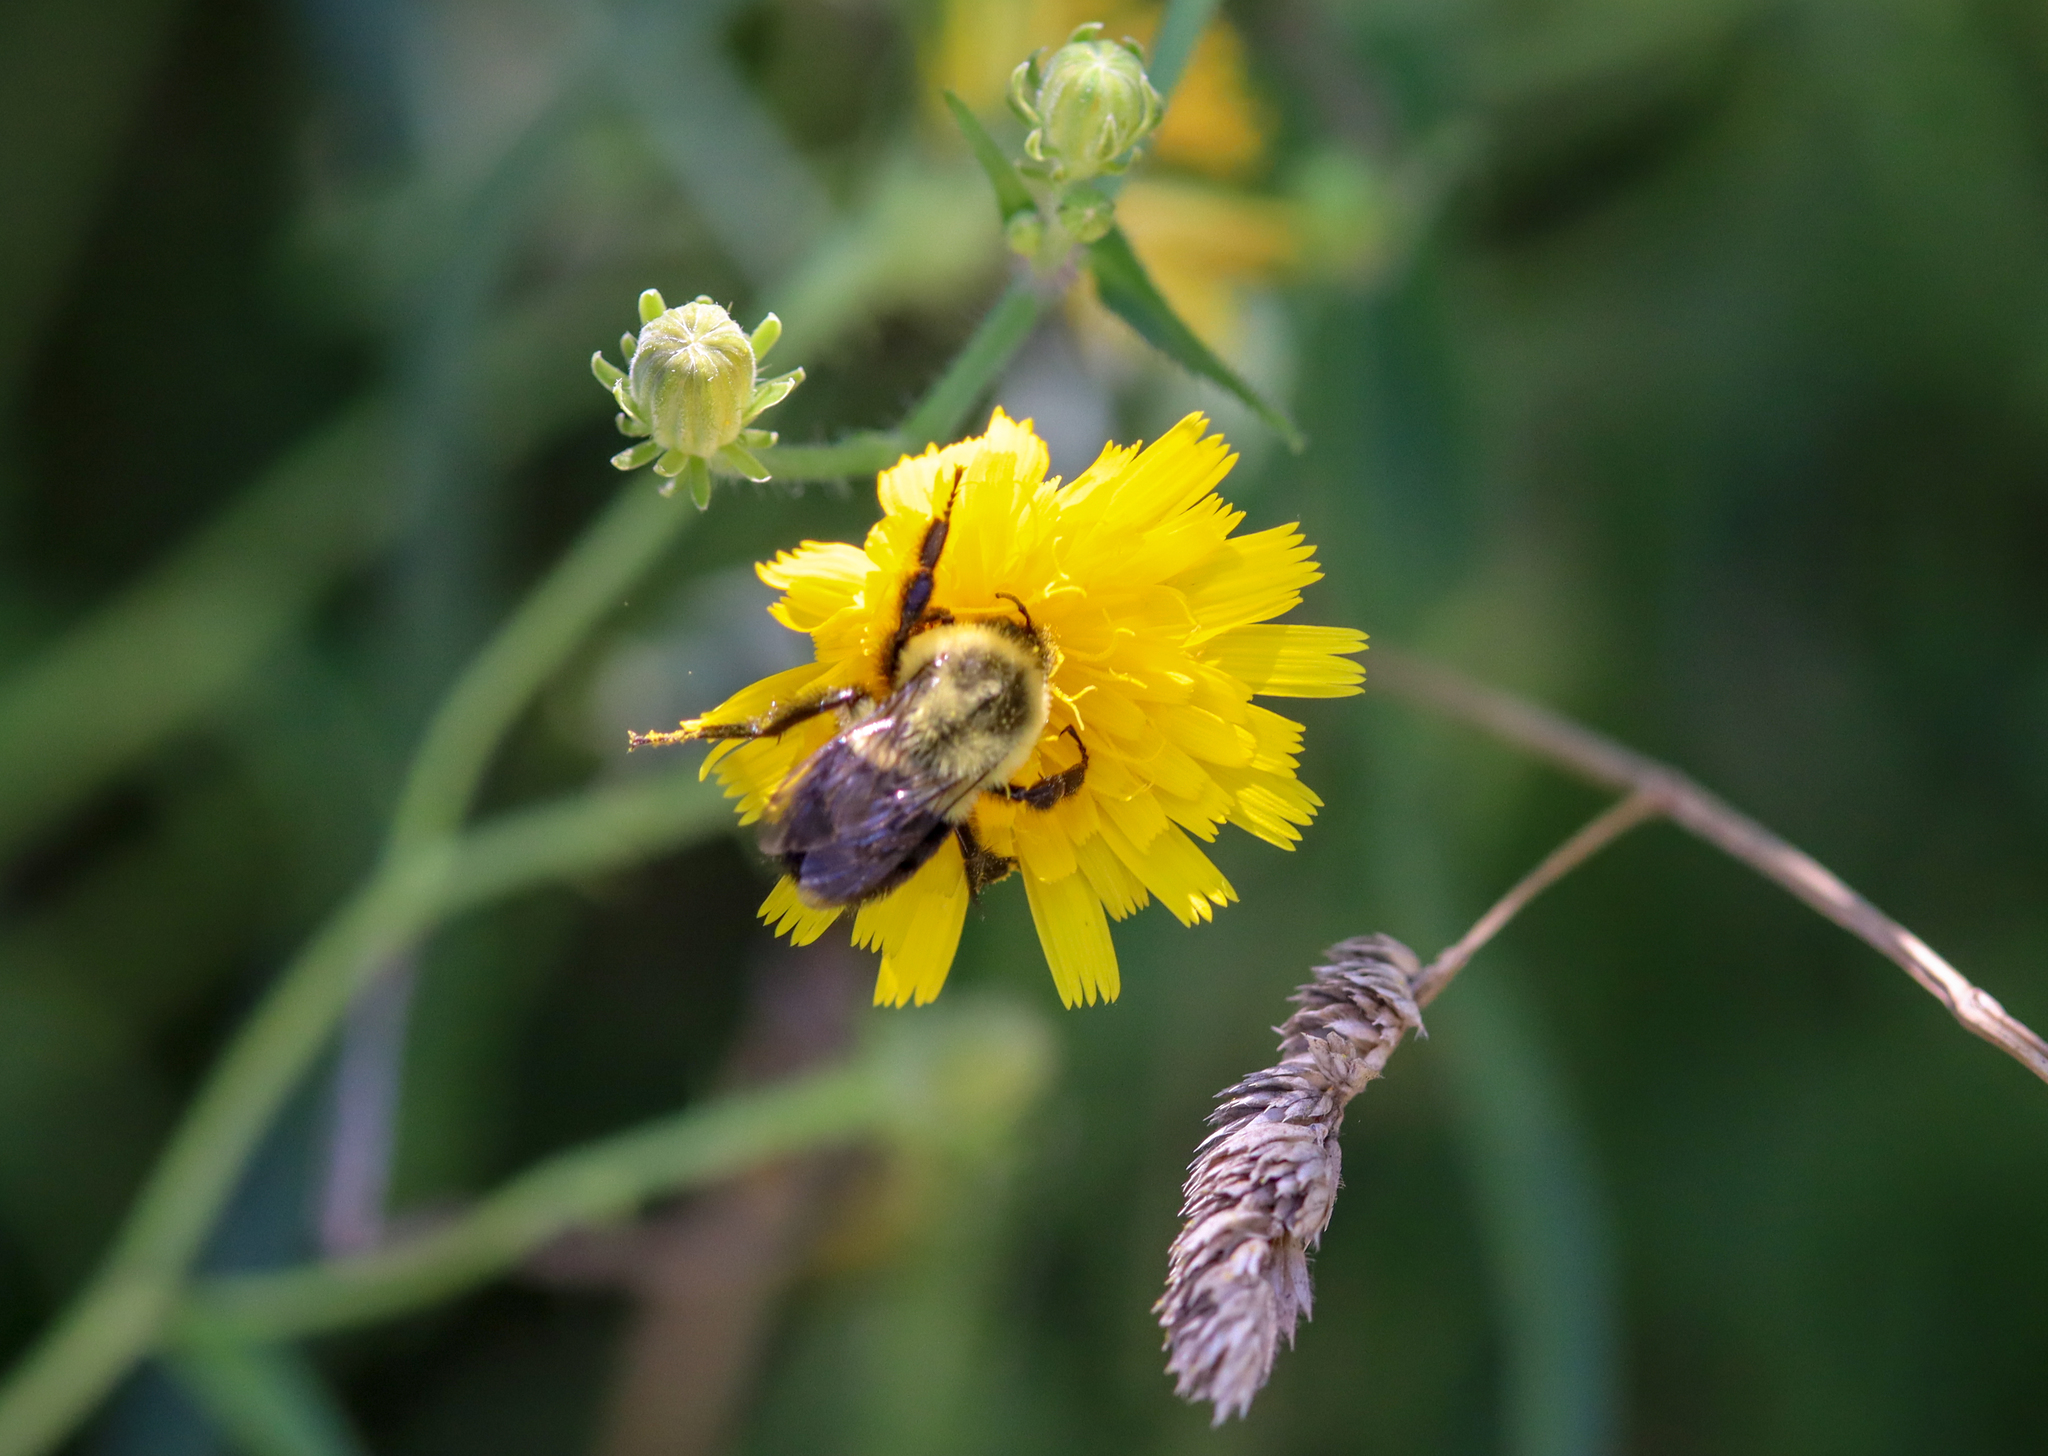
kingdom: Animalia
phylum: Arthropoda
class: Insecta
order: Hymenoptera
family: Apidae
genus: Bombus
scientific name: Bombus impatiens
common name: Common eastern bumble bee
